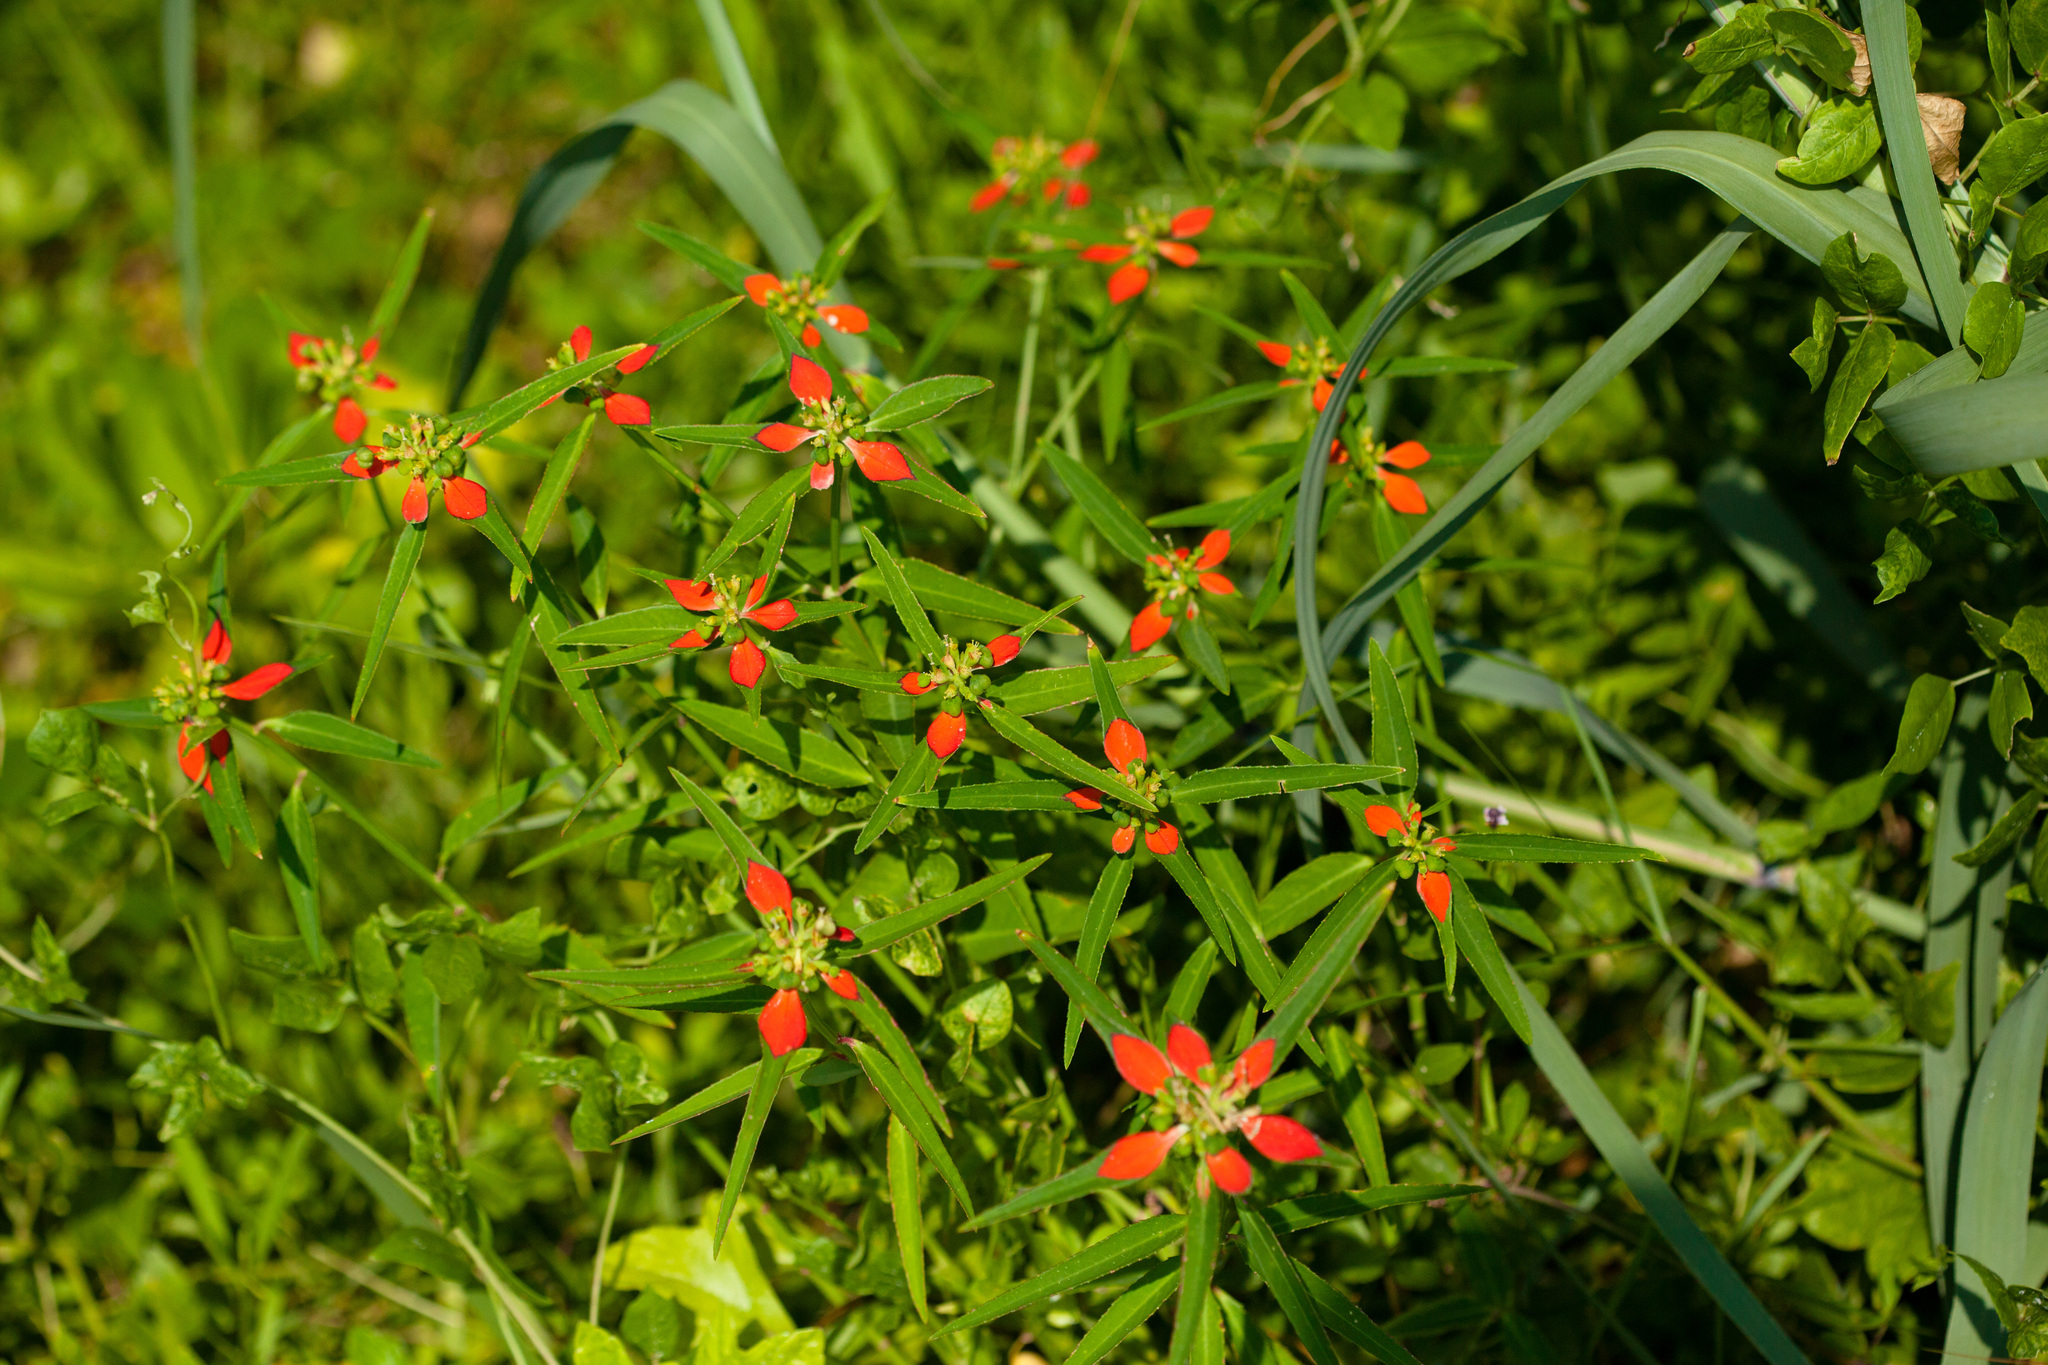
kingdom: Plantae
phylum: Tracheophyta
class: Magnoliopsida
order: Malpighiales
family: Euphorbiaceae
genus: Euphorbia
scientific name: Euphorbia heterophylla
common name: Mexican fireplant
